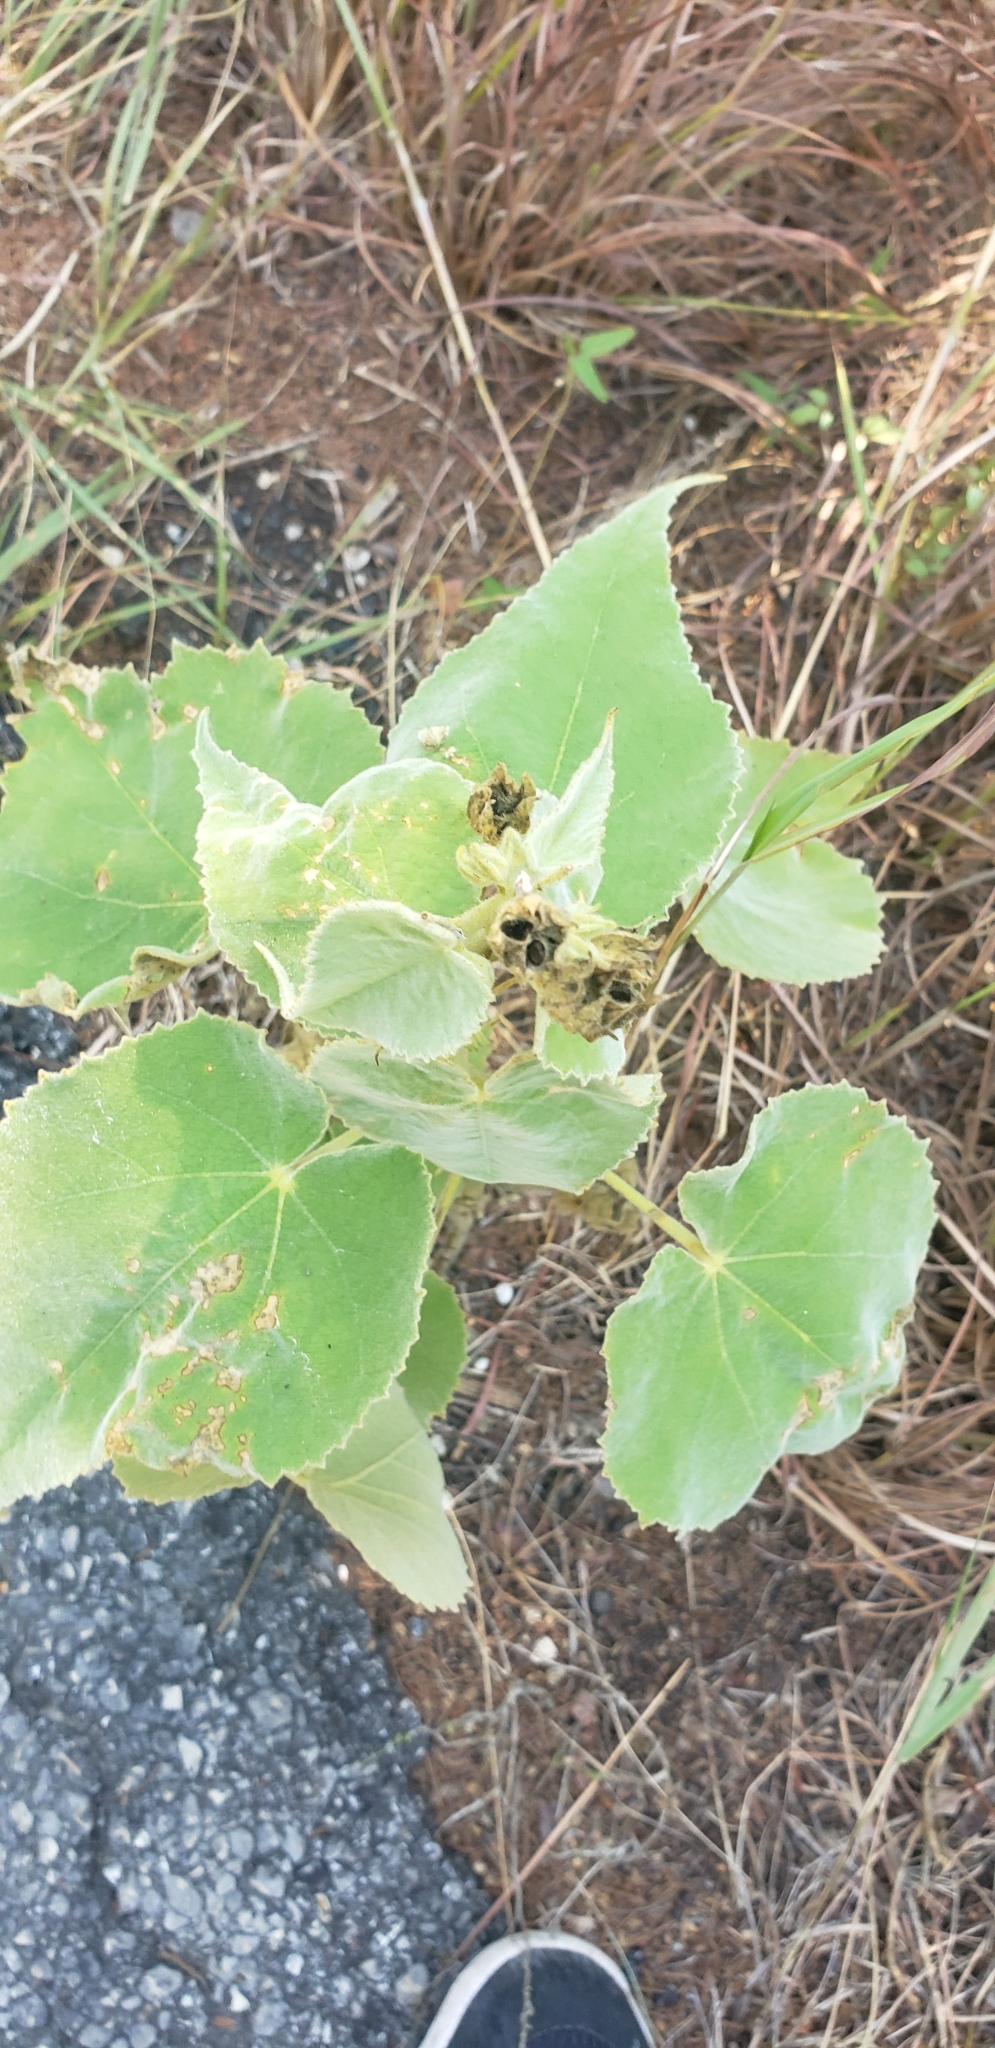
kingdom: Plantae
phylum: Tracheophyta
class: Magnoliopsida
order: Malvales
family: Malvaceae
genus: Allowissadula
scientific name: Allowissadula holosericea
